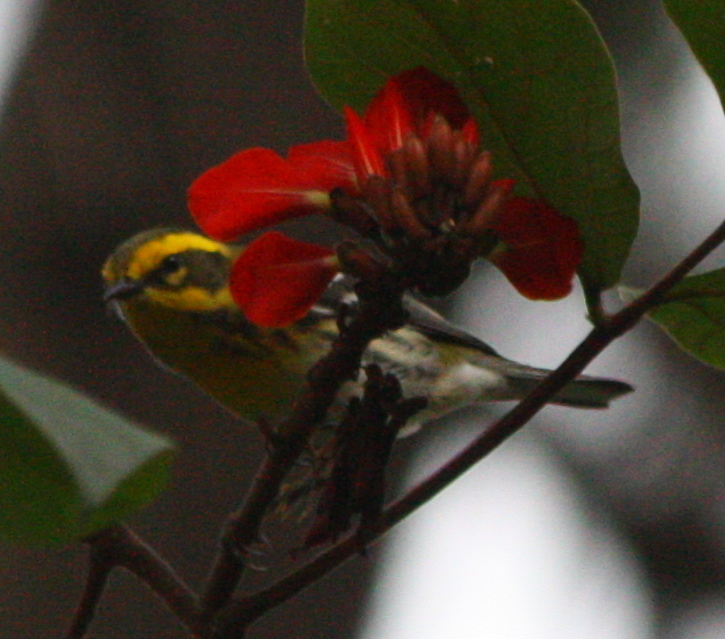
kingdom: Animalia
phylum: Chordata
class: Aves
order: Passeriformes
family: Parulidae
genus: Setophaga
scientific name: Setophaga townsendi
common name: Townsend's warbler
